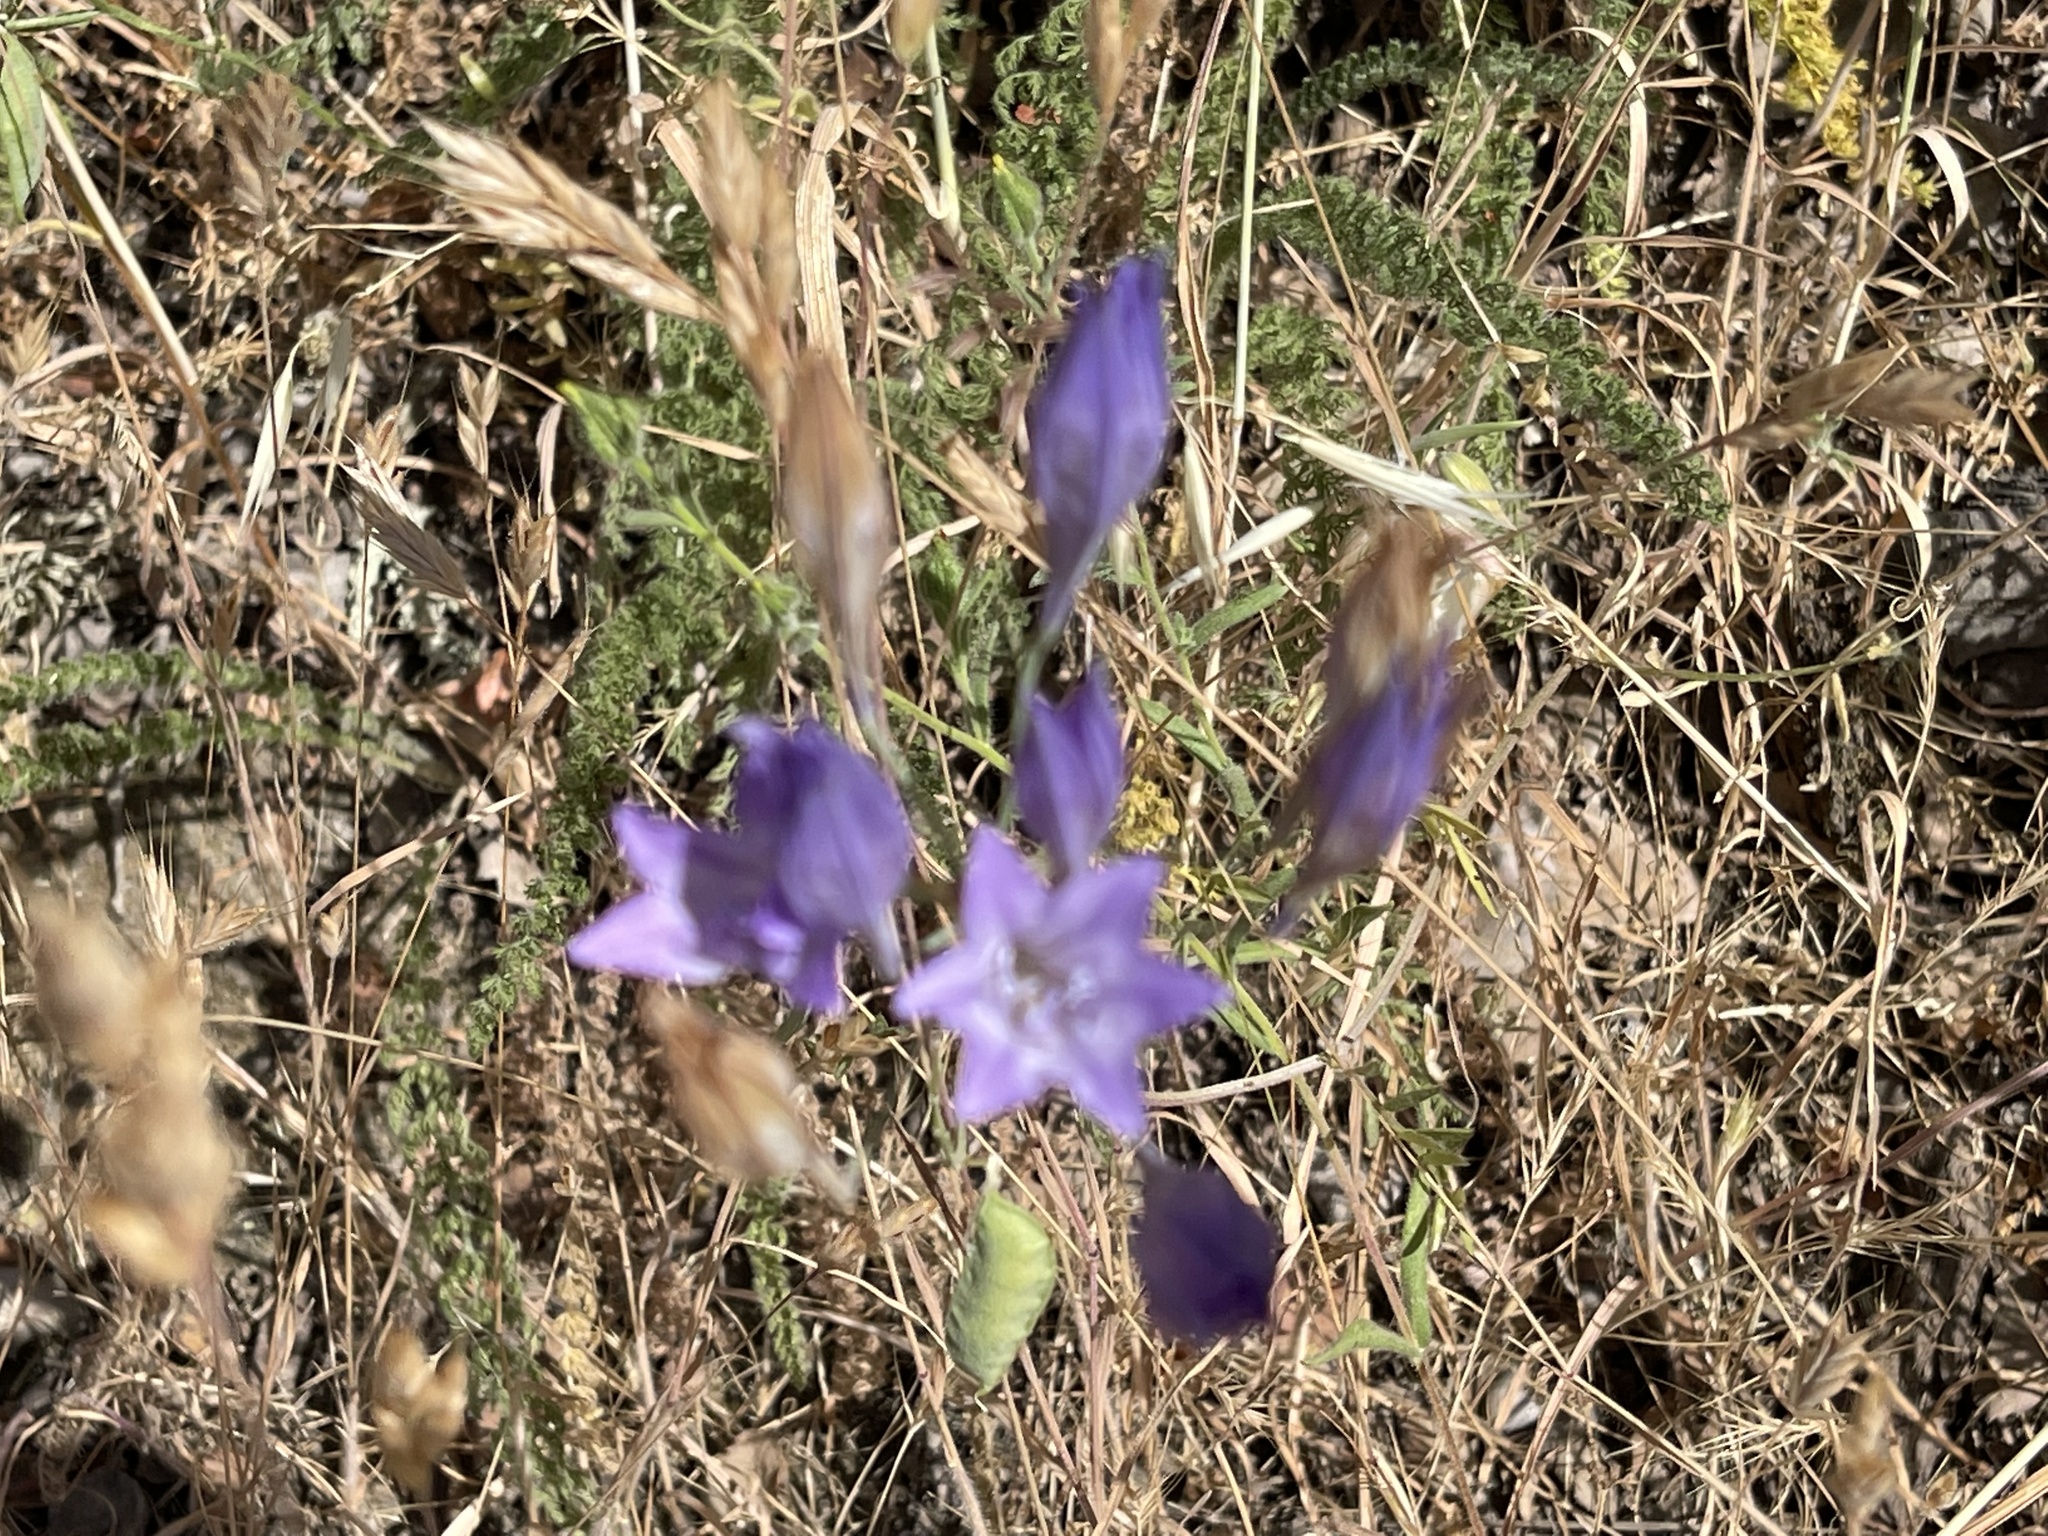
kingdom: Plantae
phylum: Tracheophyta
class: Liliopsida
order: Asparagales
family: Asparagaceae
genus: Triteleia
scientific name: Triteleia laxa
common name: Triplet-lily
